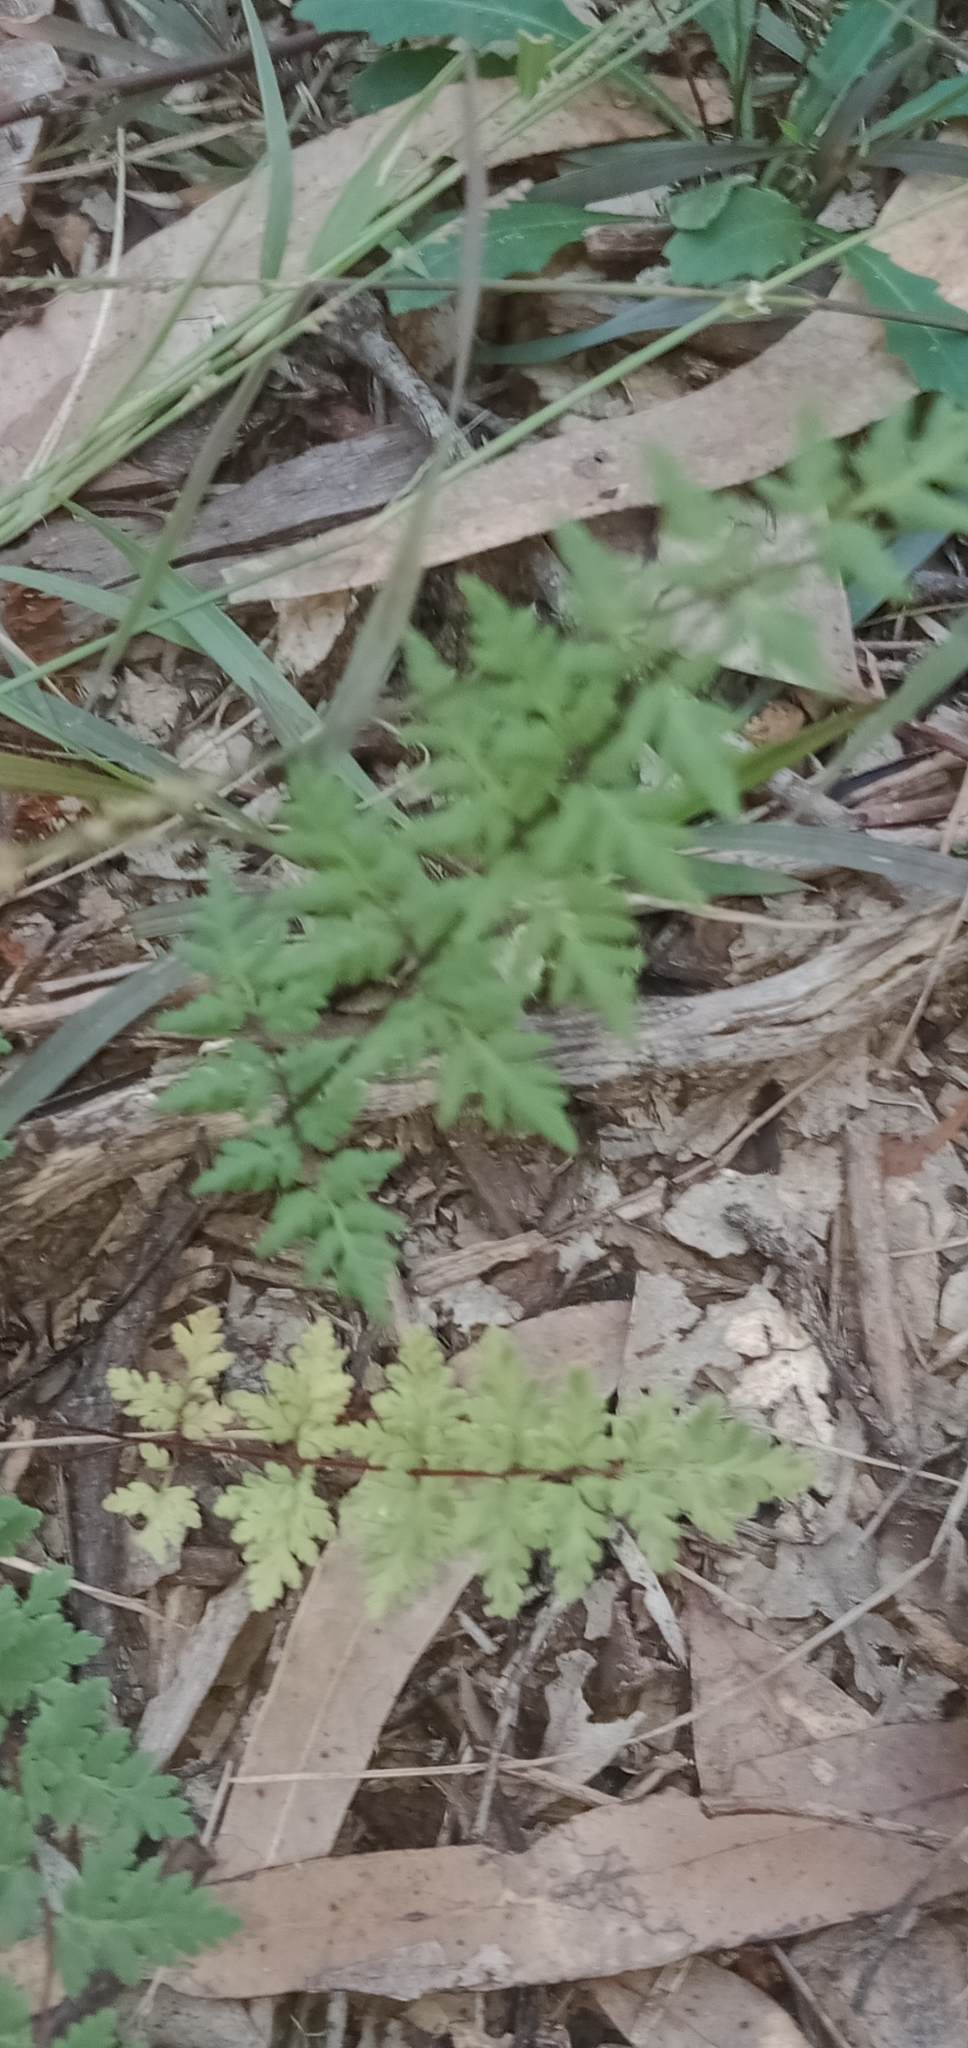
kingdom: Plantae
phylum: Tracheophyta
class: Polypodiopsida
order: Polypodiales
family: Pteridaceae
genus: Cheilanthes
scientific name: Cheilanthes sieberi
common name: Mulga fern
